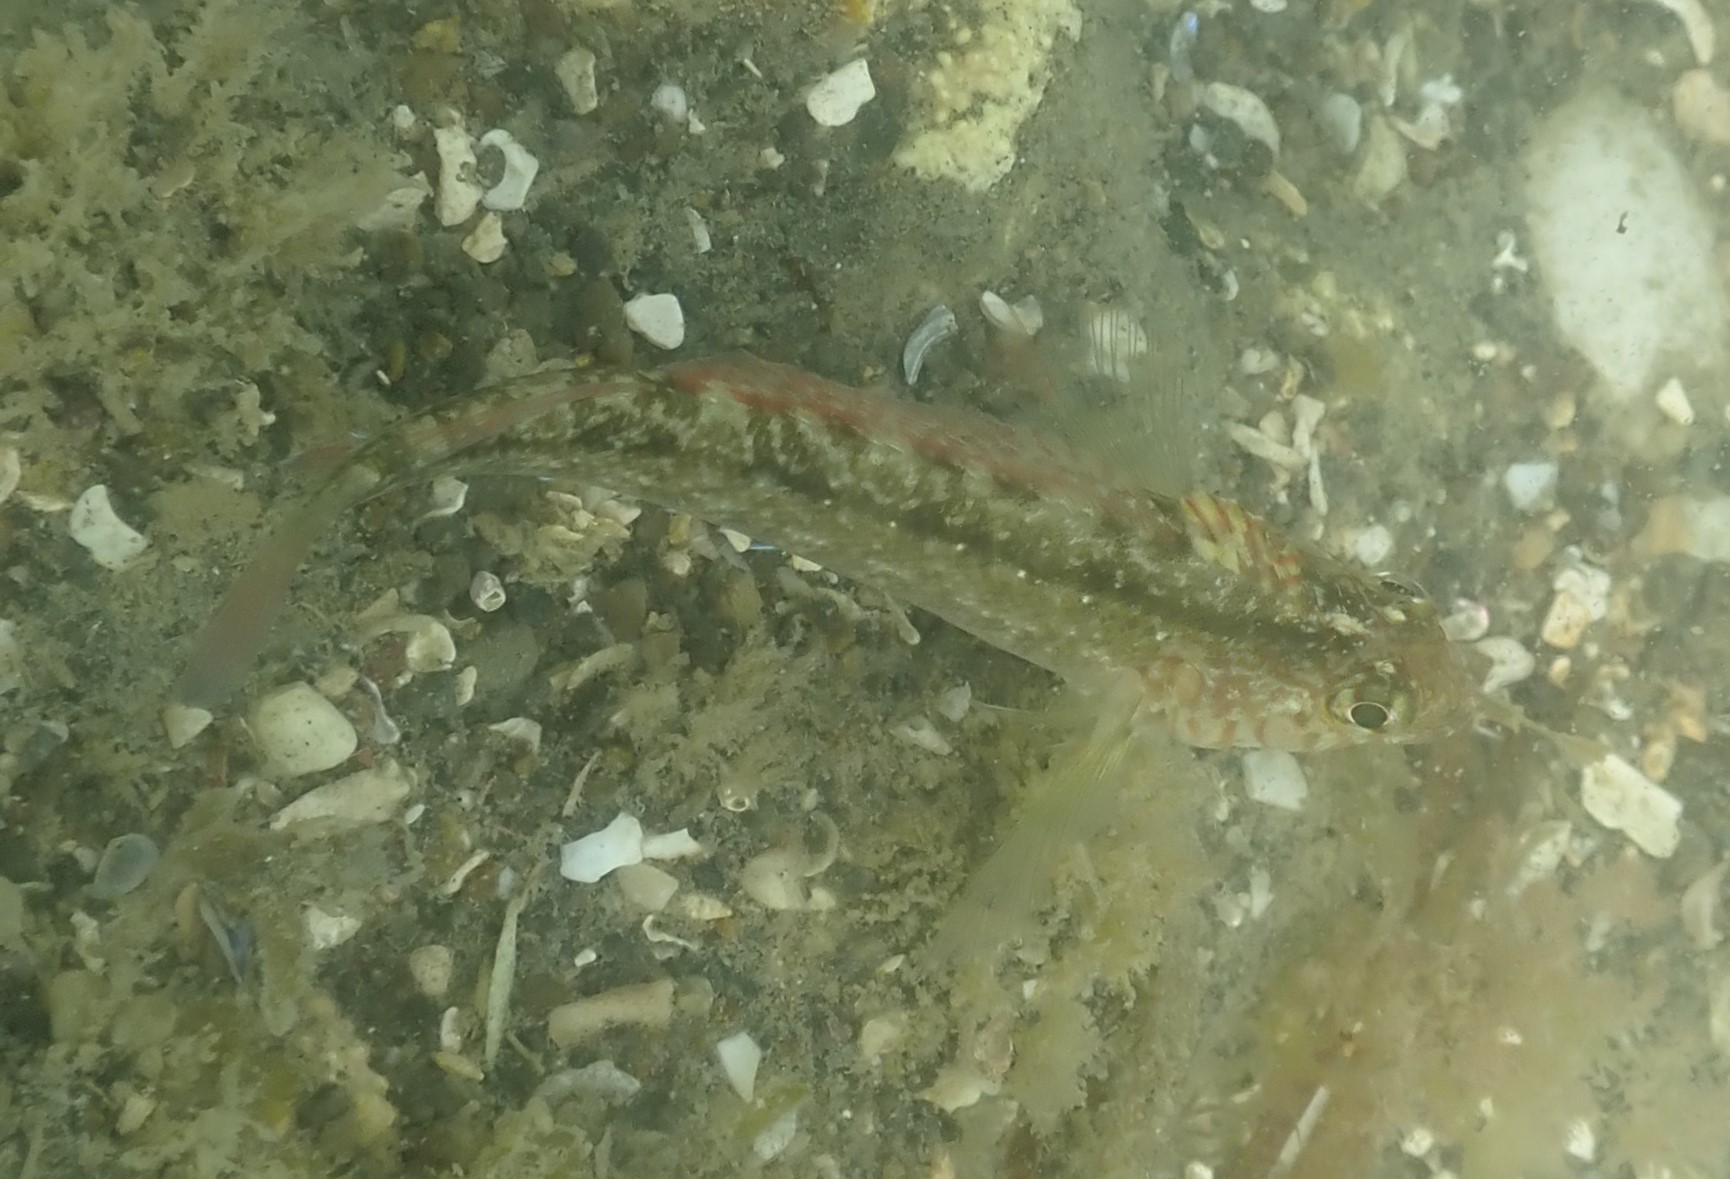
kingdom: Animalia
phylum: Chordata
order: Perciformes
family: Tripterygiidae
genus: Forsterygion
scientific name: Forsterygion lapillum
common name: Common triplefin
